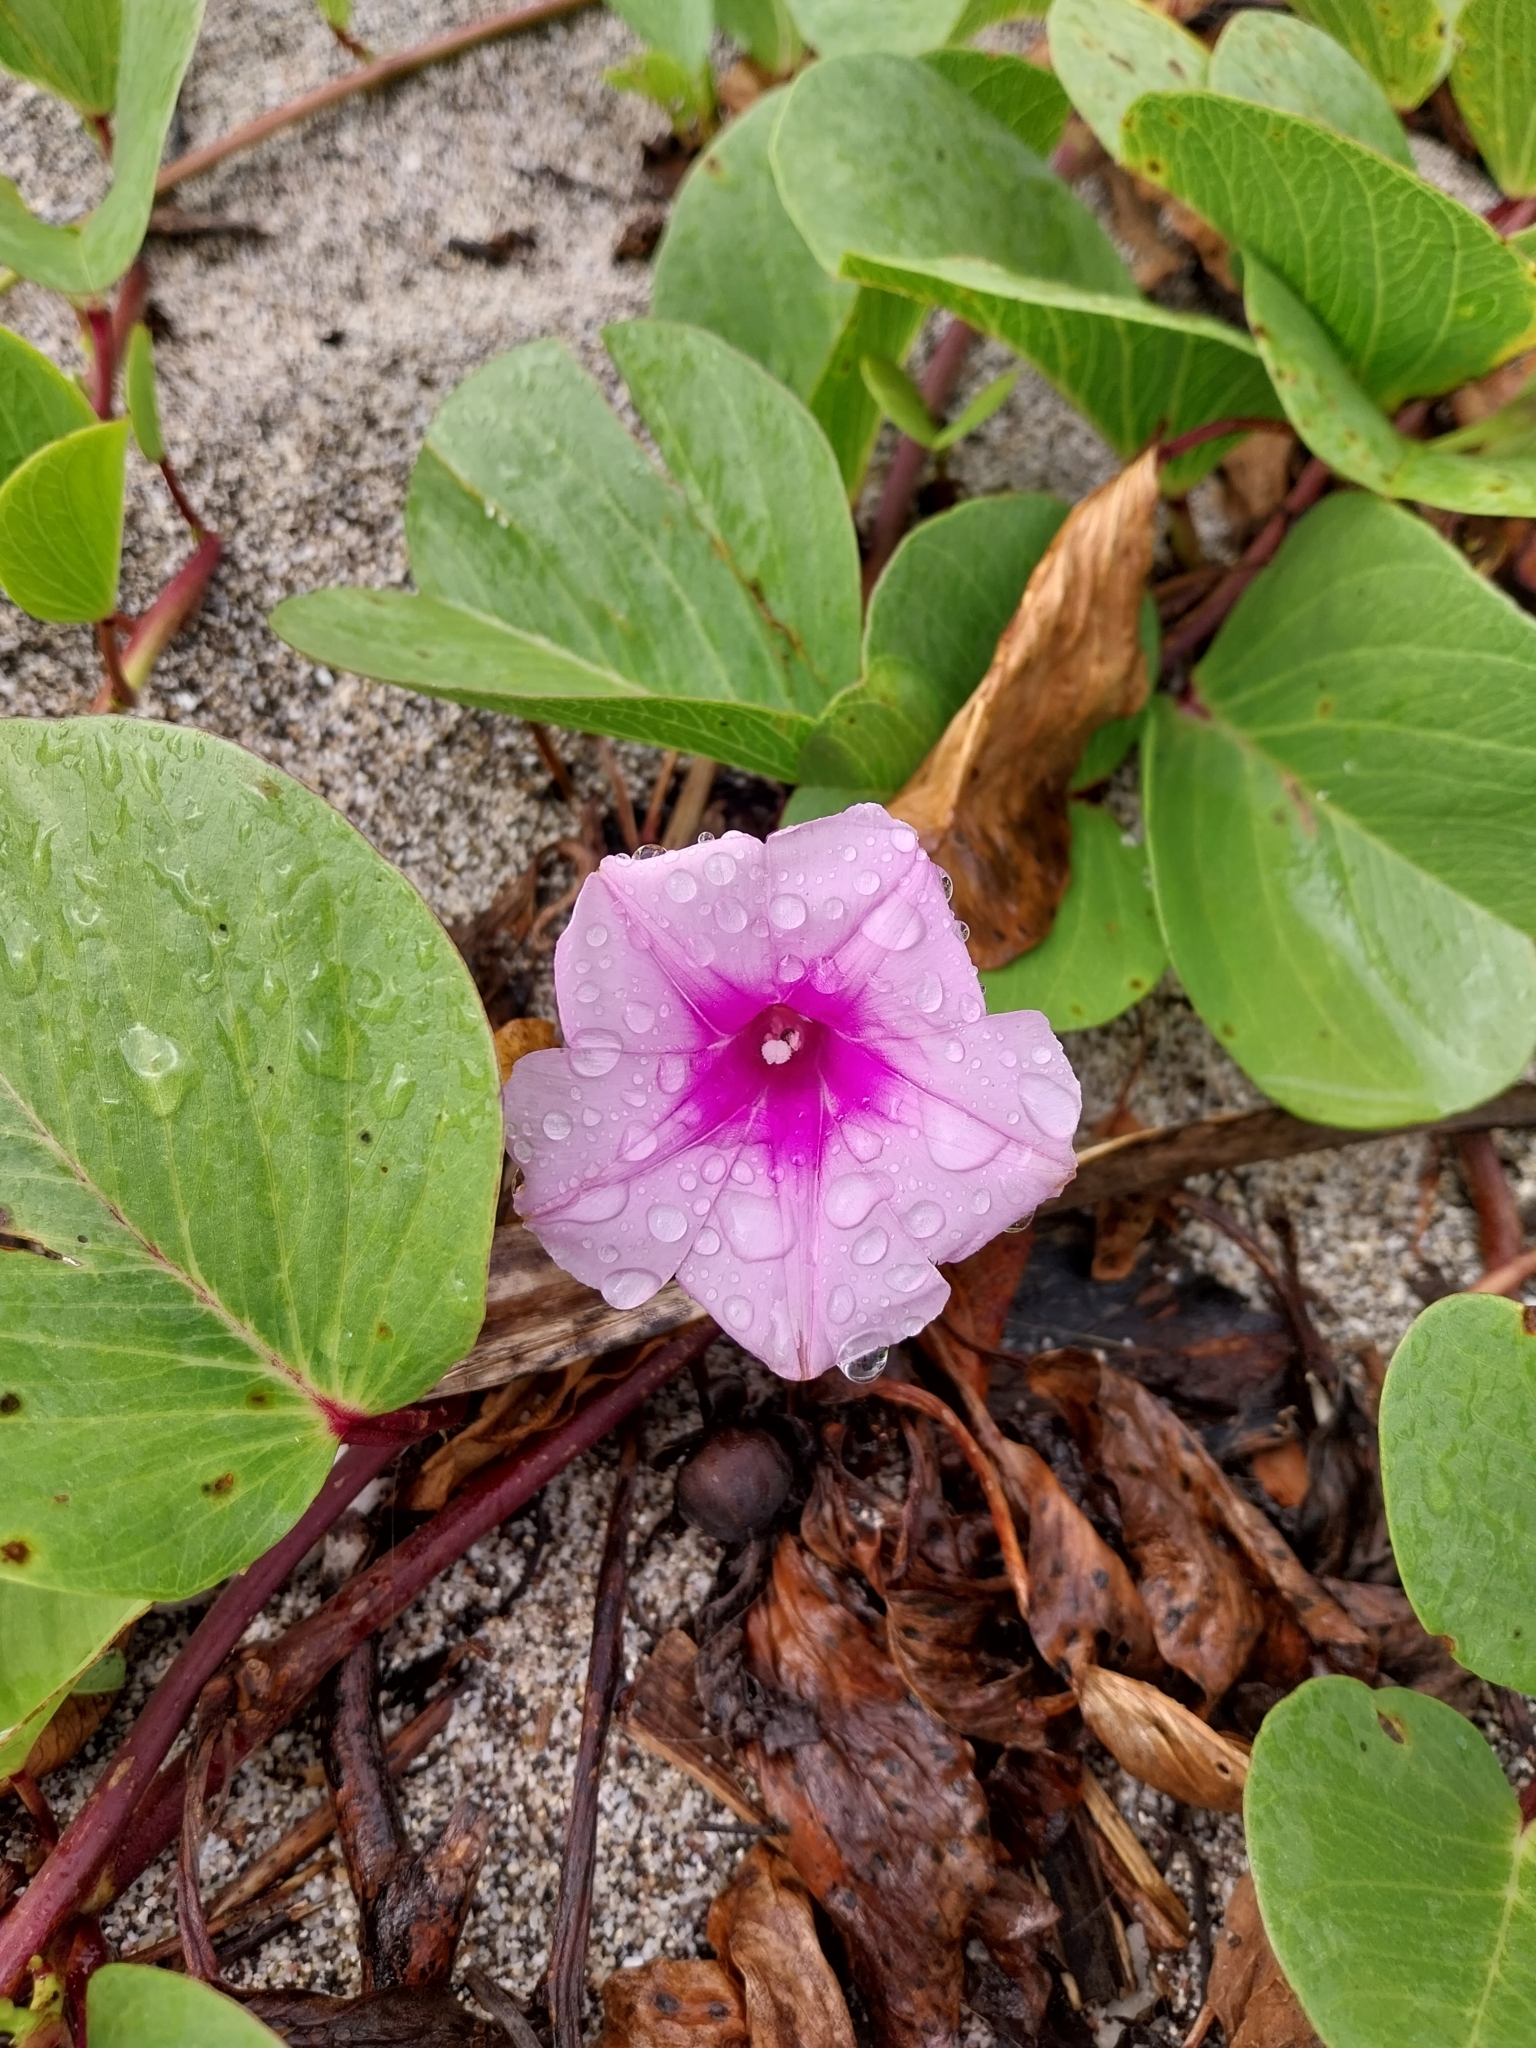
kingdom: Plantae
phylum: Tracheophyta
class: Magnoliopsida
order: Solanales
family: Convolvulaceae
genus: Ipomoea
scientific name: Ipomoea pes-caprae
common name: Beach morning glory
